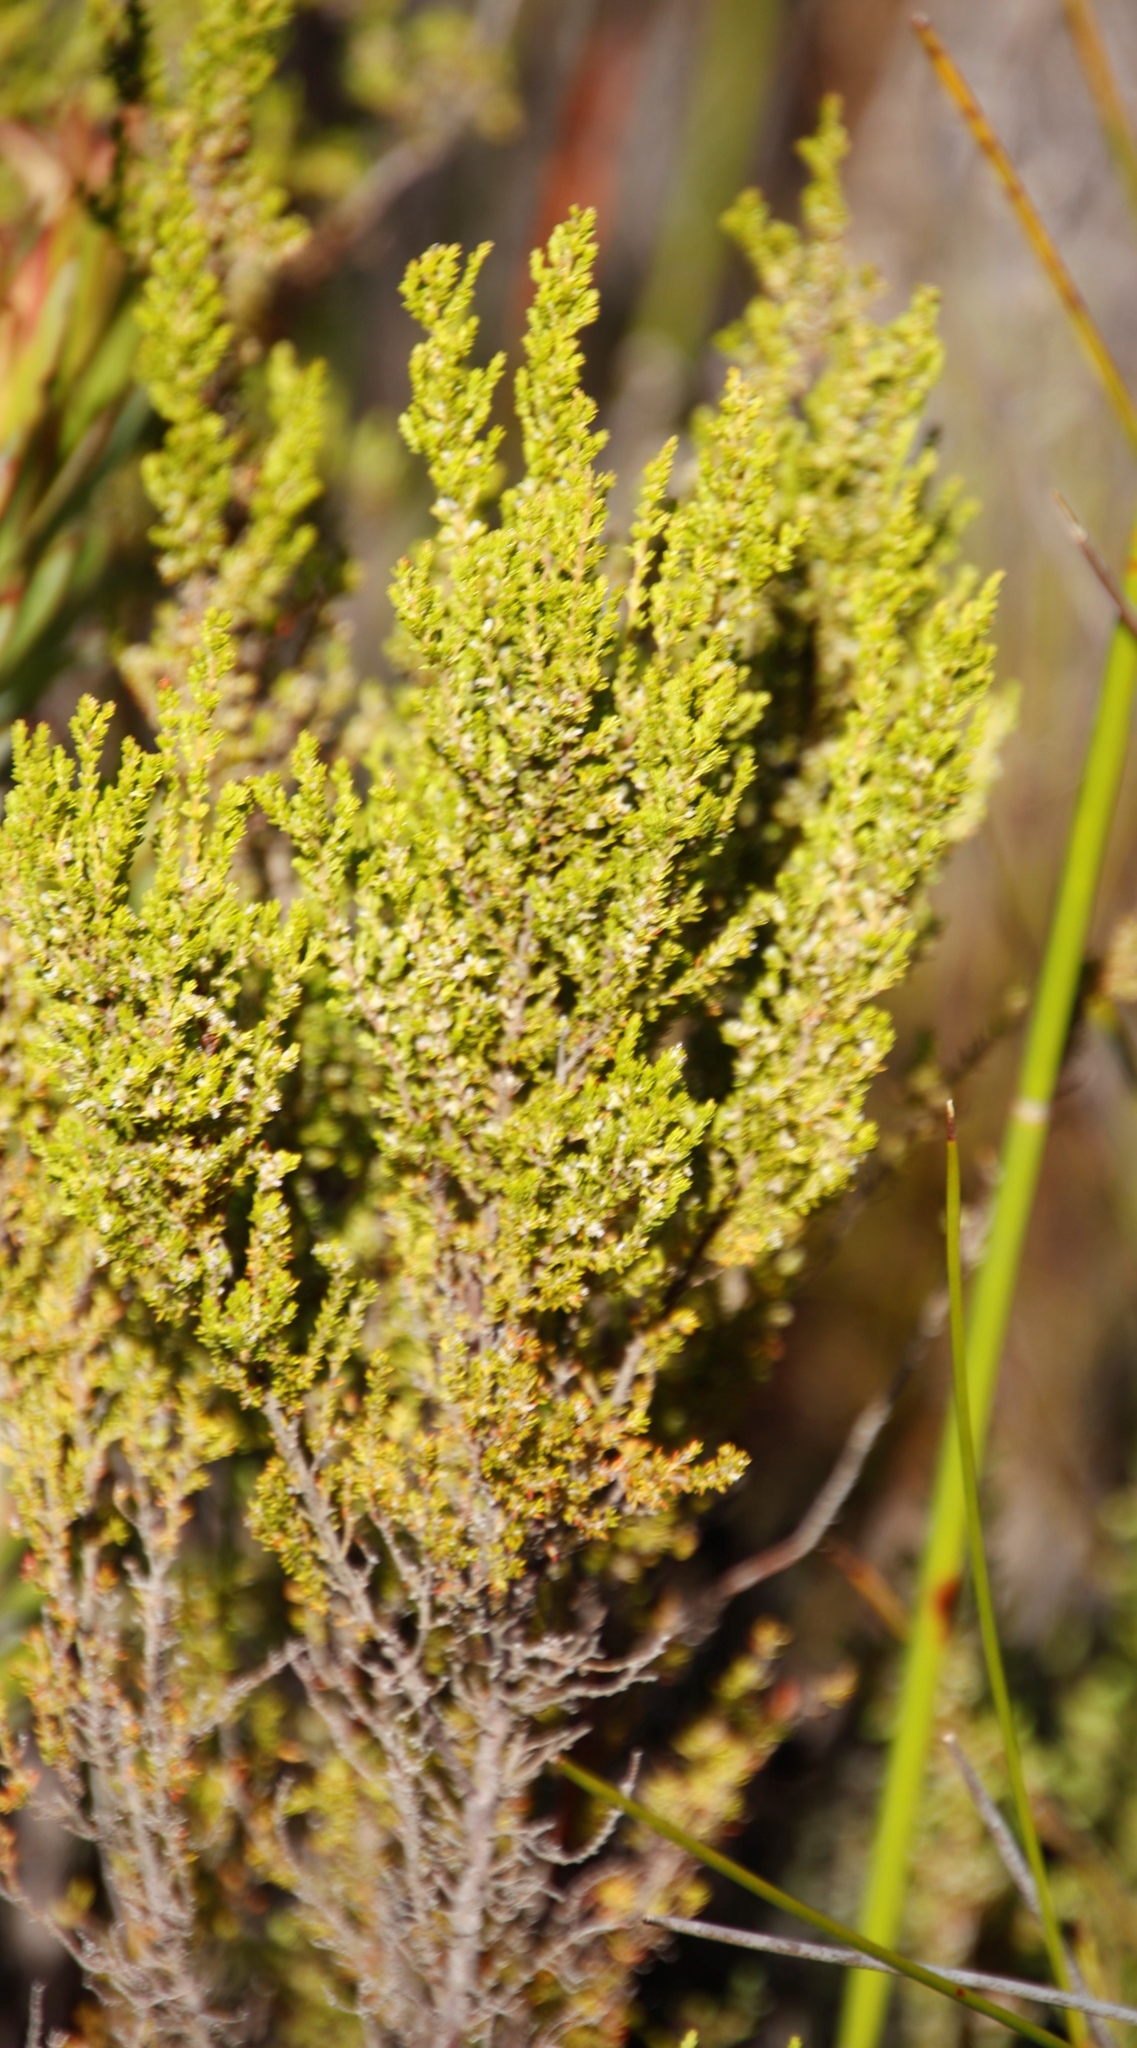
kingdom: Plantae
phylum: Tracheophyta
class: Magnoliopsida
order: Ericales
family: Ericaceae
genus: Erica
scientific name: Erica muscosa
